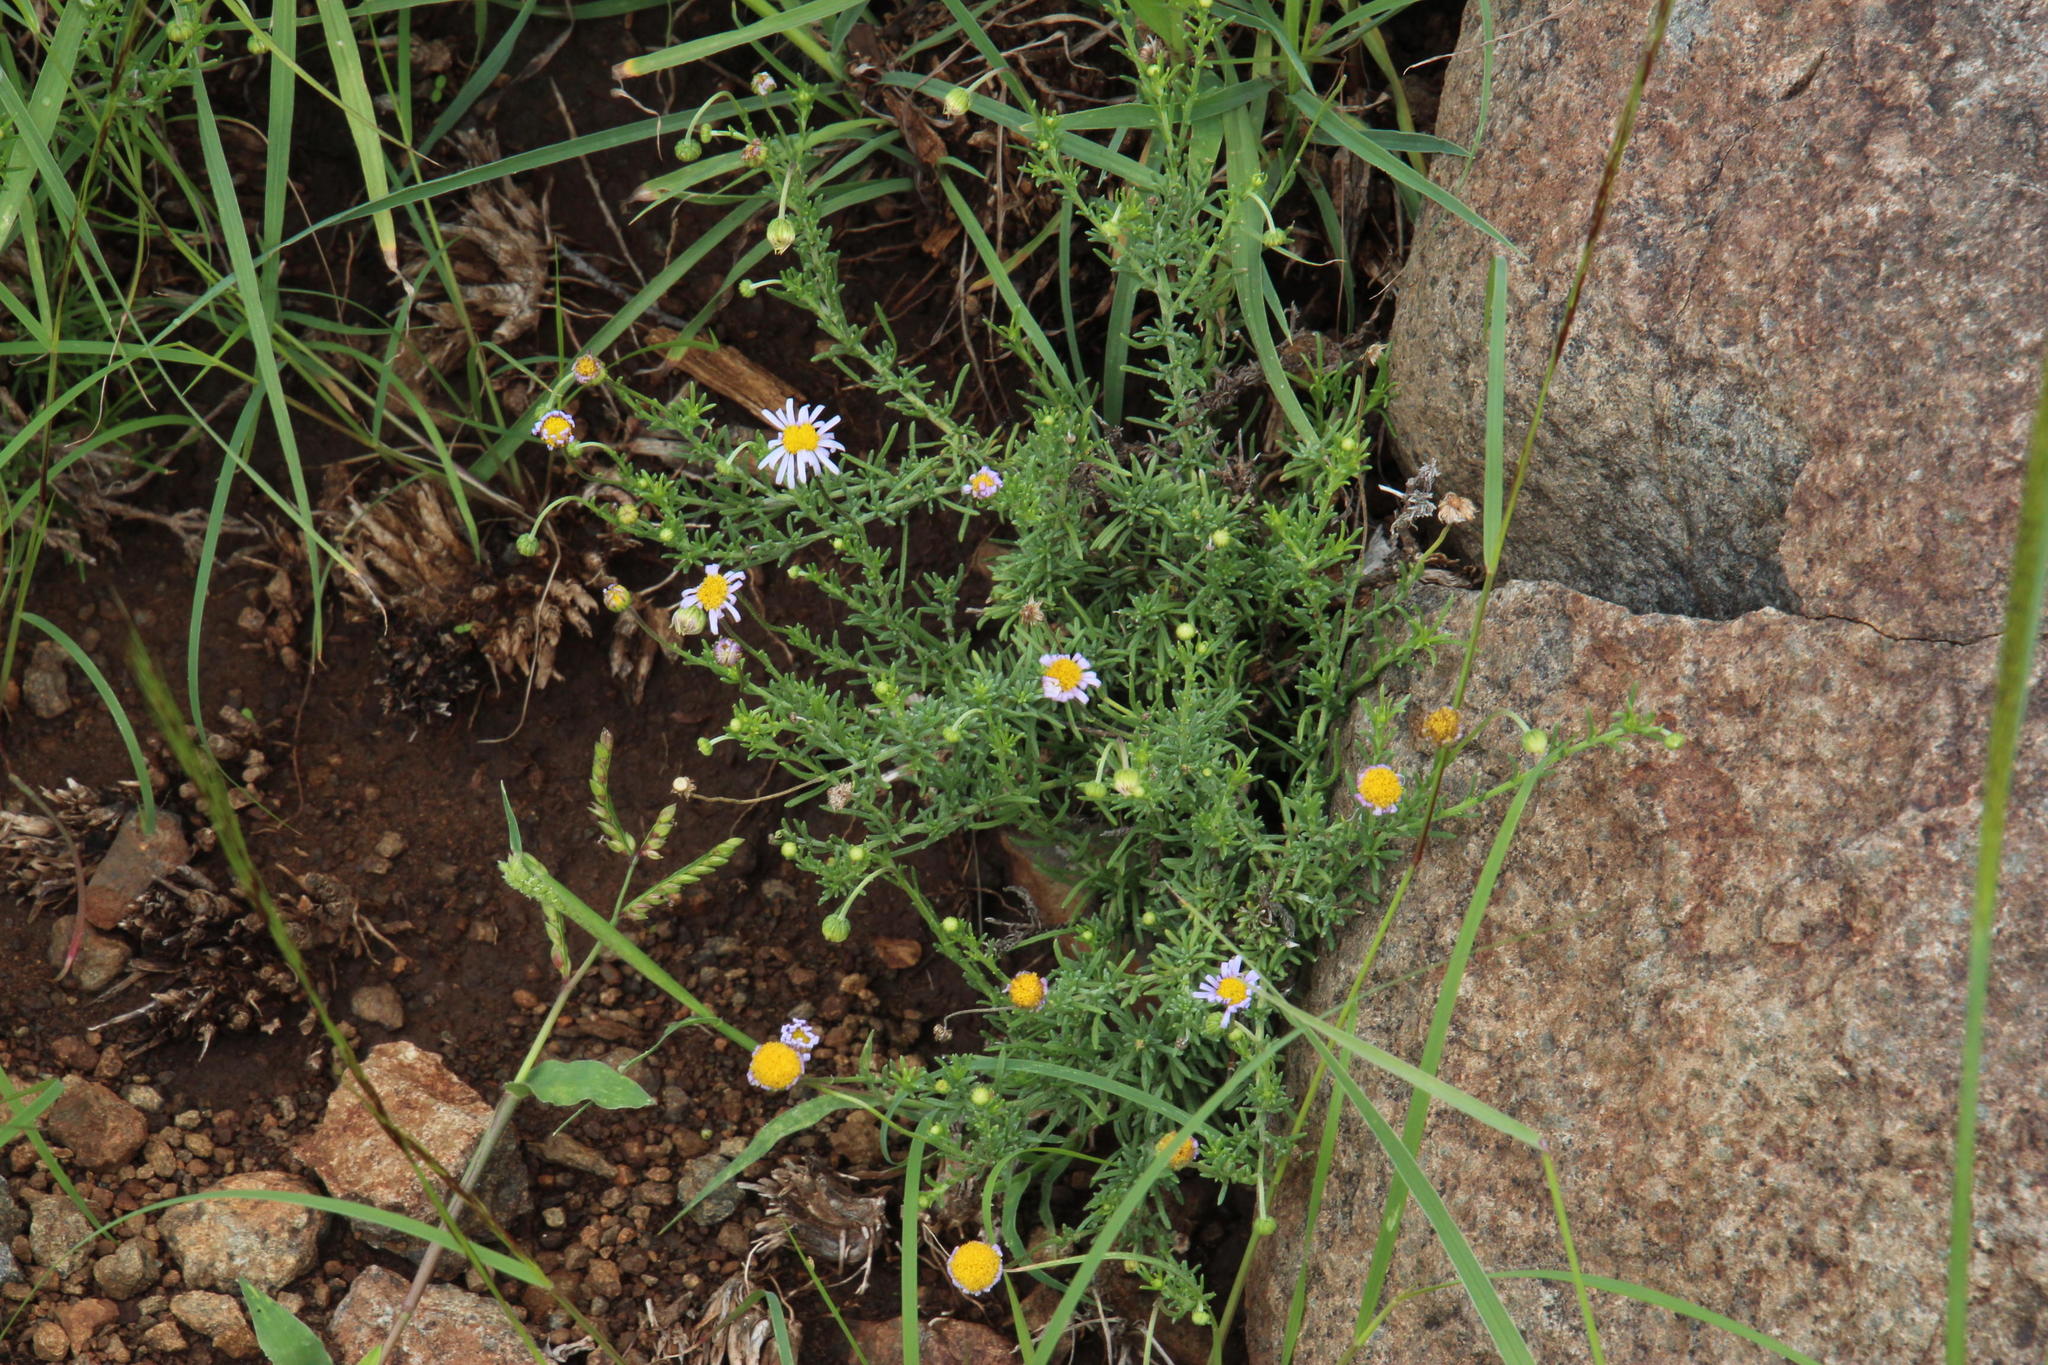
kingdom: Plantae
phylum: Tracheophyta
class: Magnoliopsida
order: Asterales
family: Asteraceae
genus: Felicia
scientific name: Felicia muricata
